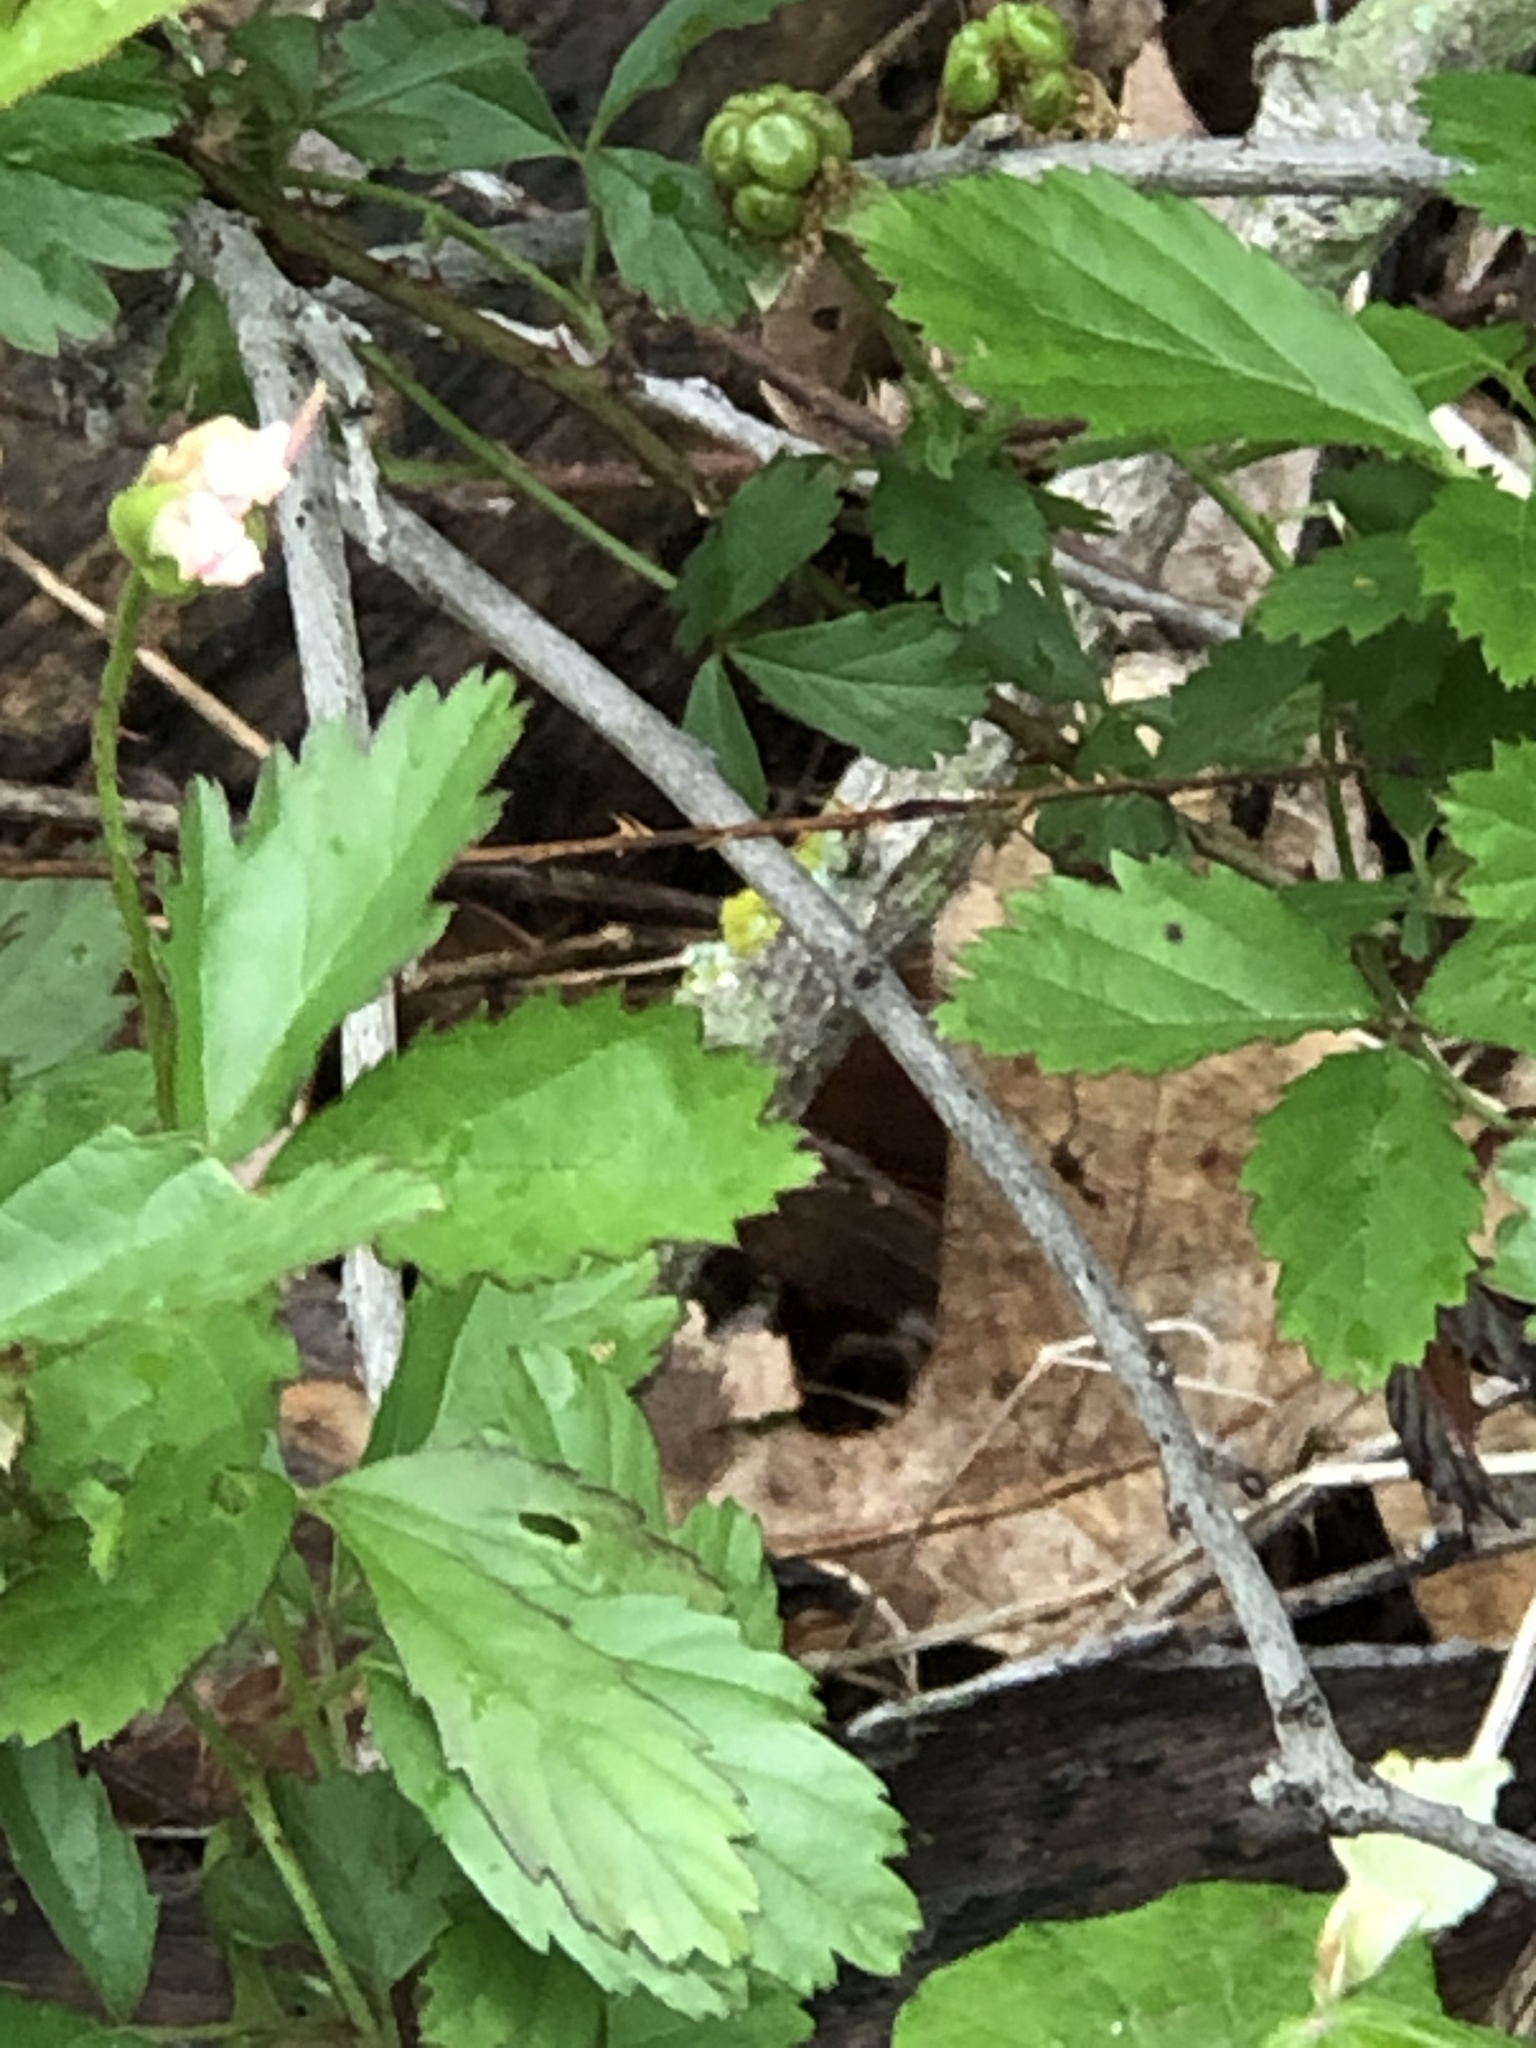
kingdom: Plantae
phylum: Tracheophyta
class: Magnoliopsida
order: Rosales
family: Rosaceae
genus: Rubus
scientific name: Rubus trivialis
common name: Southern dewberry
